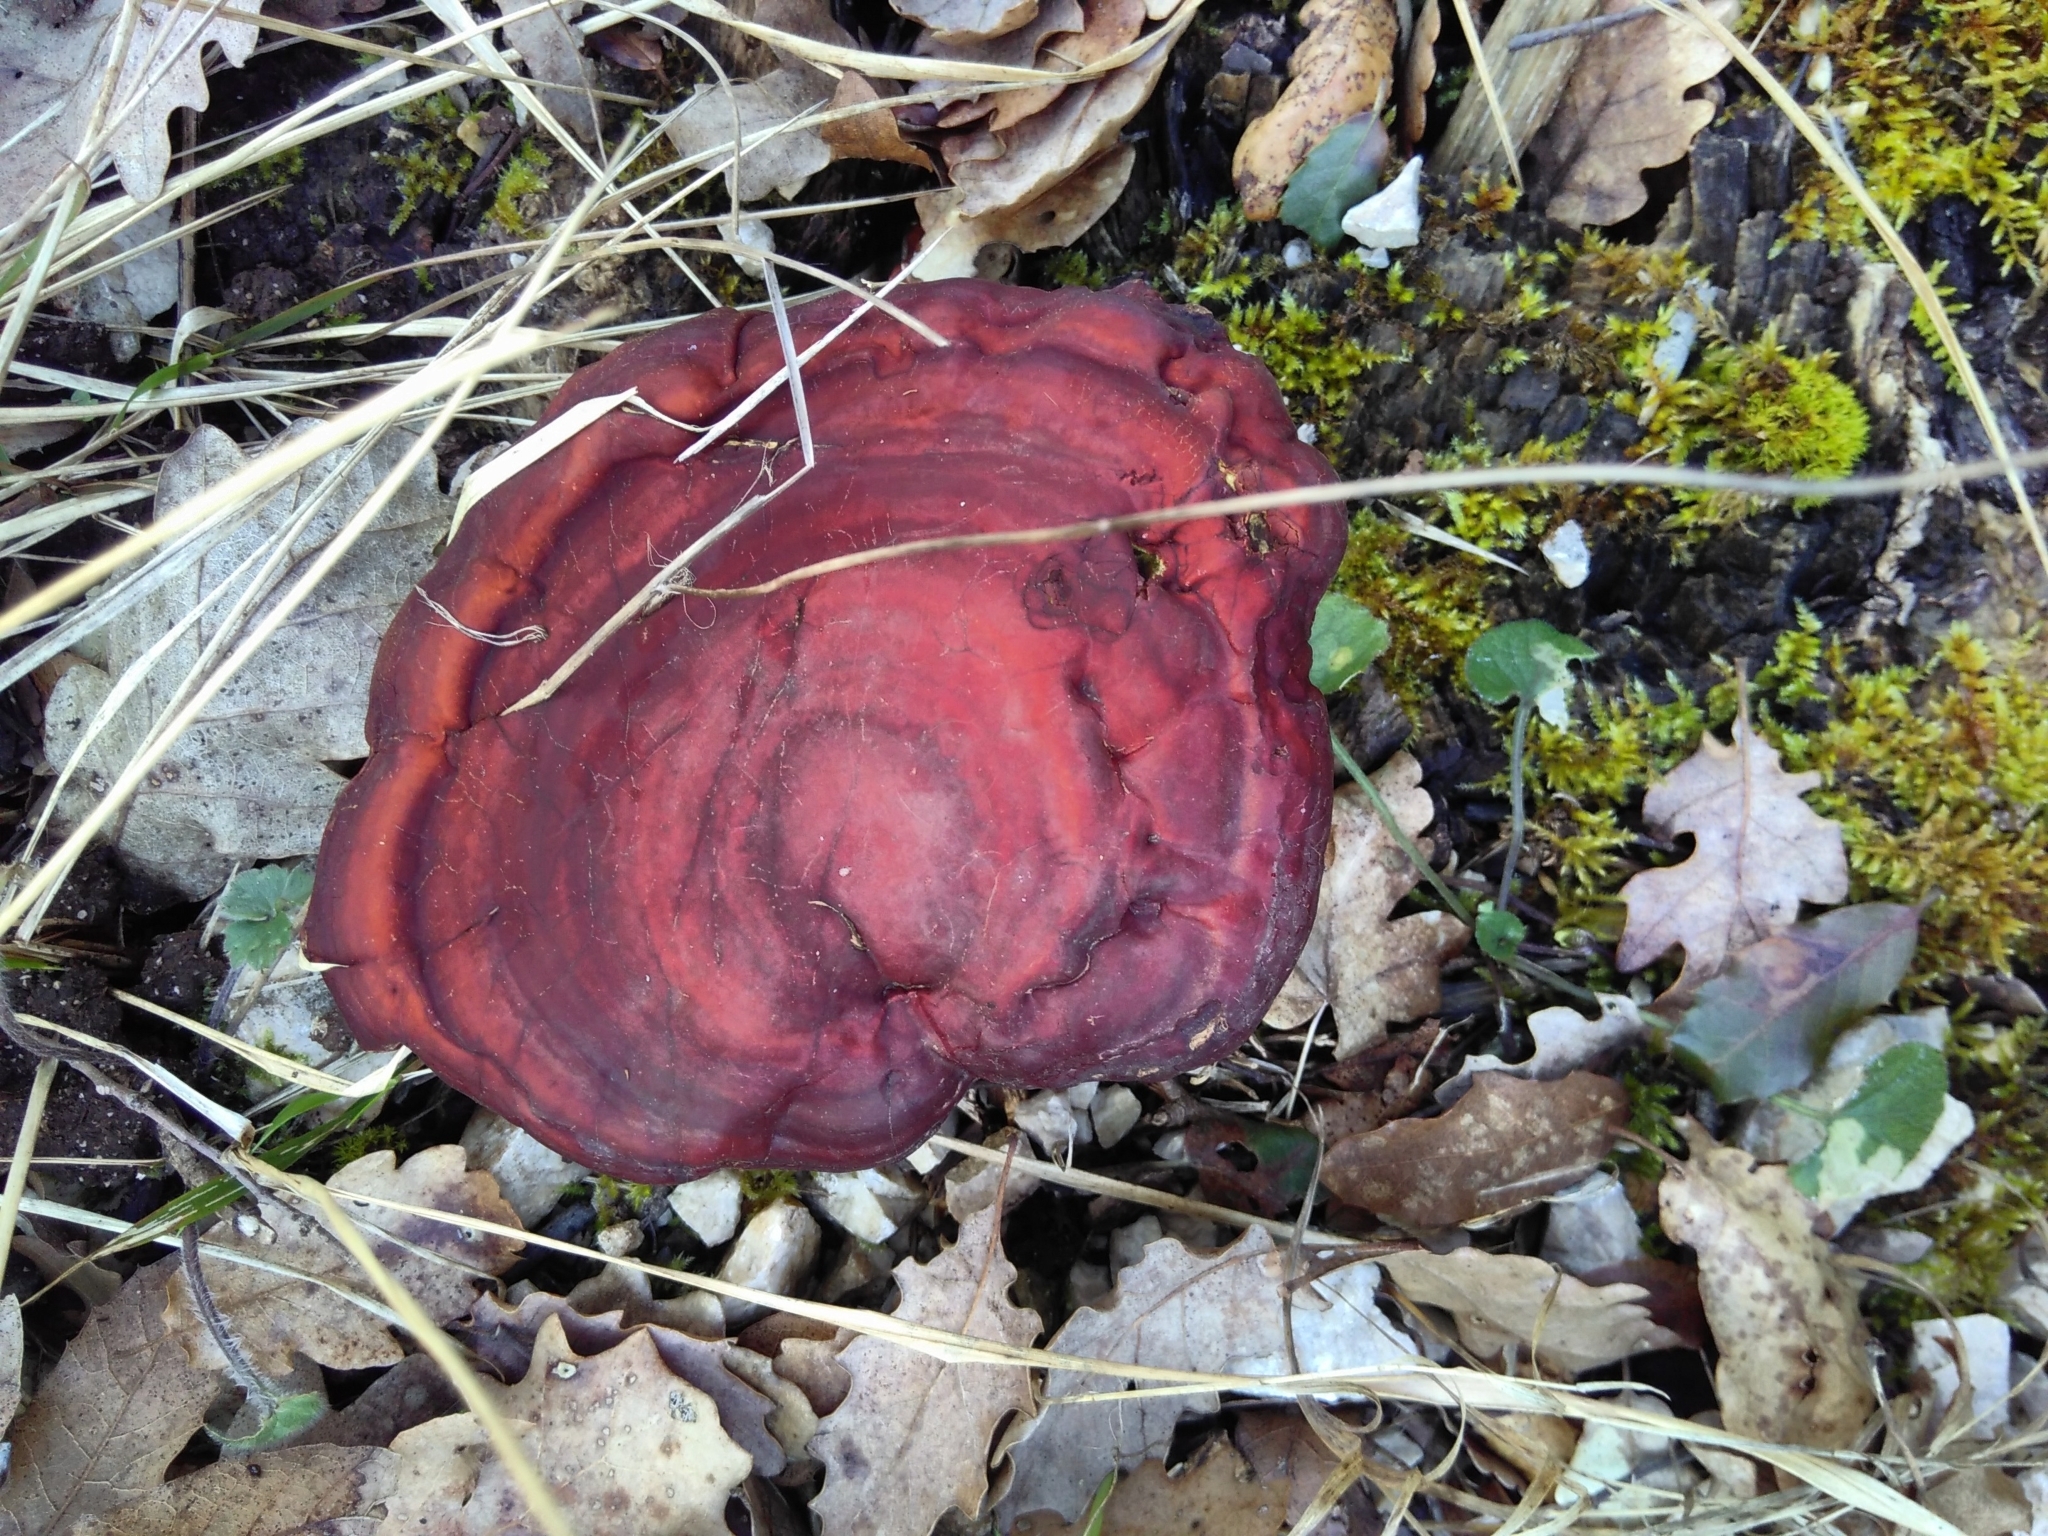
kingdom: Fungi
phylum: Basidiomycota
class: Agaricomycetes
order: Polyporales
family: Polyporaceae
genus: Ganoderma
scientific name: Ganoderma lucidum
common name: Lacquered bracket
